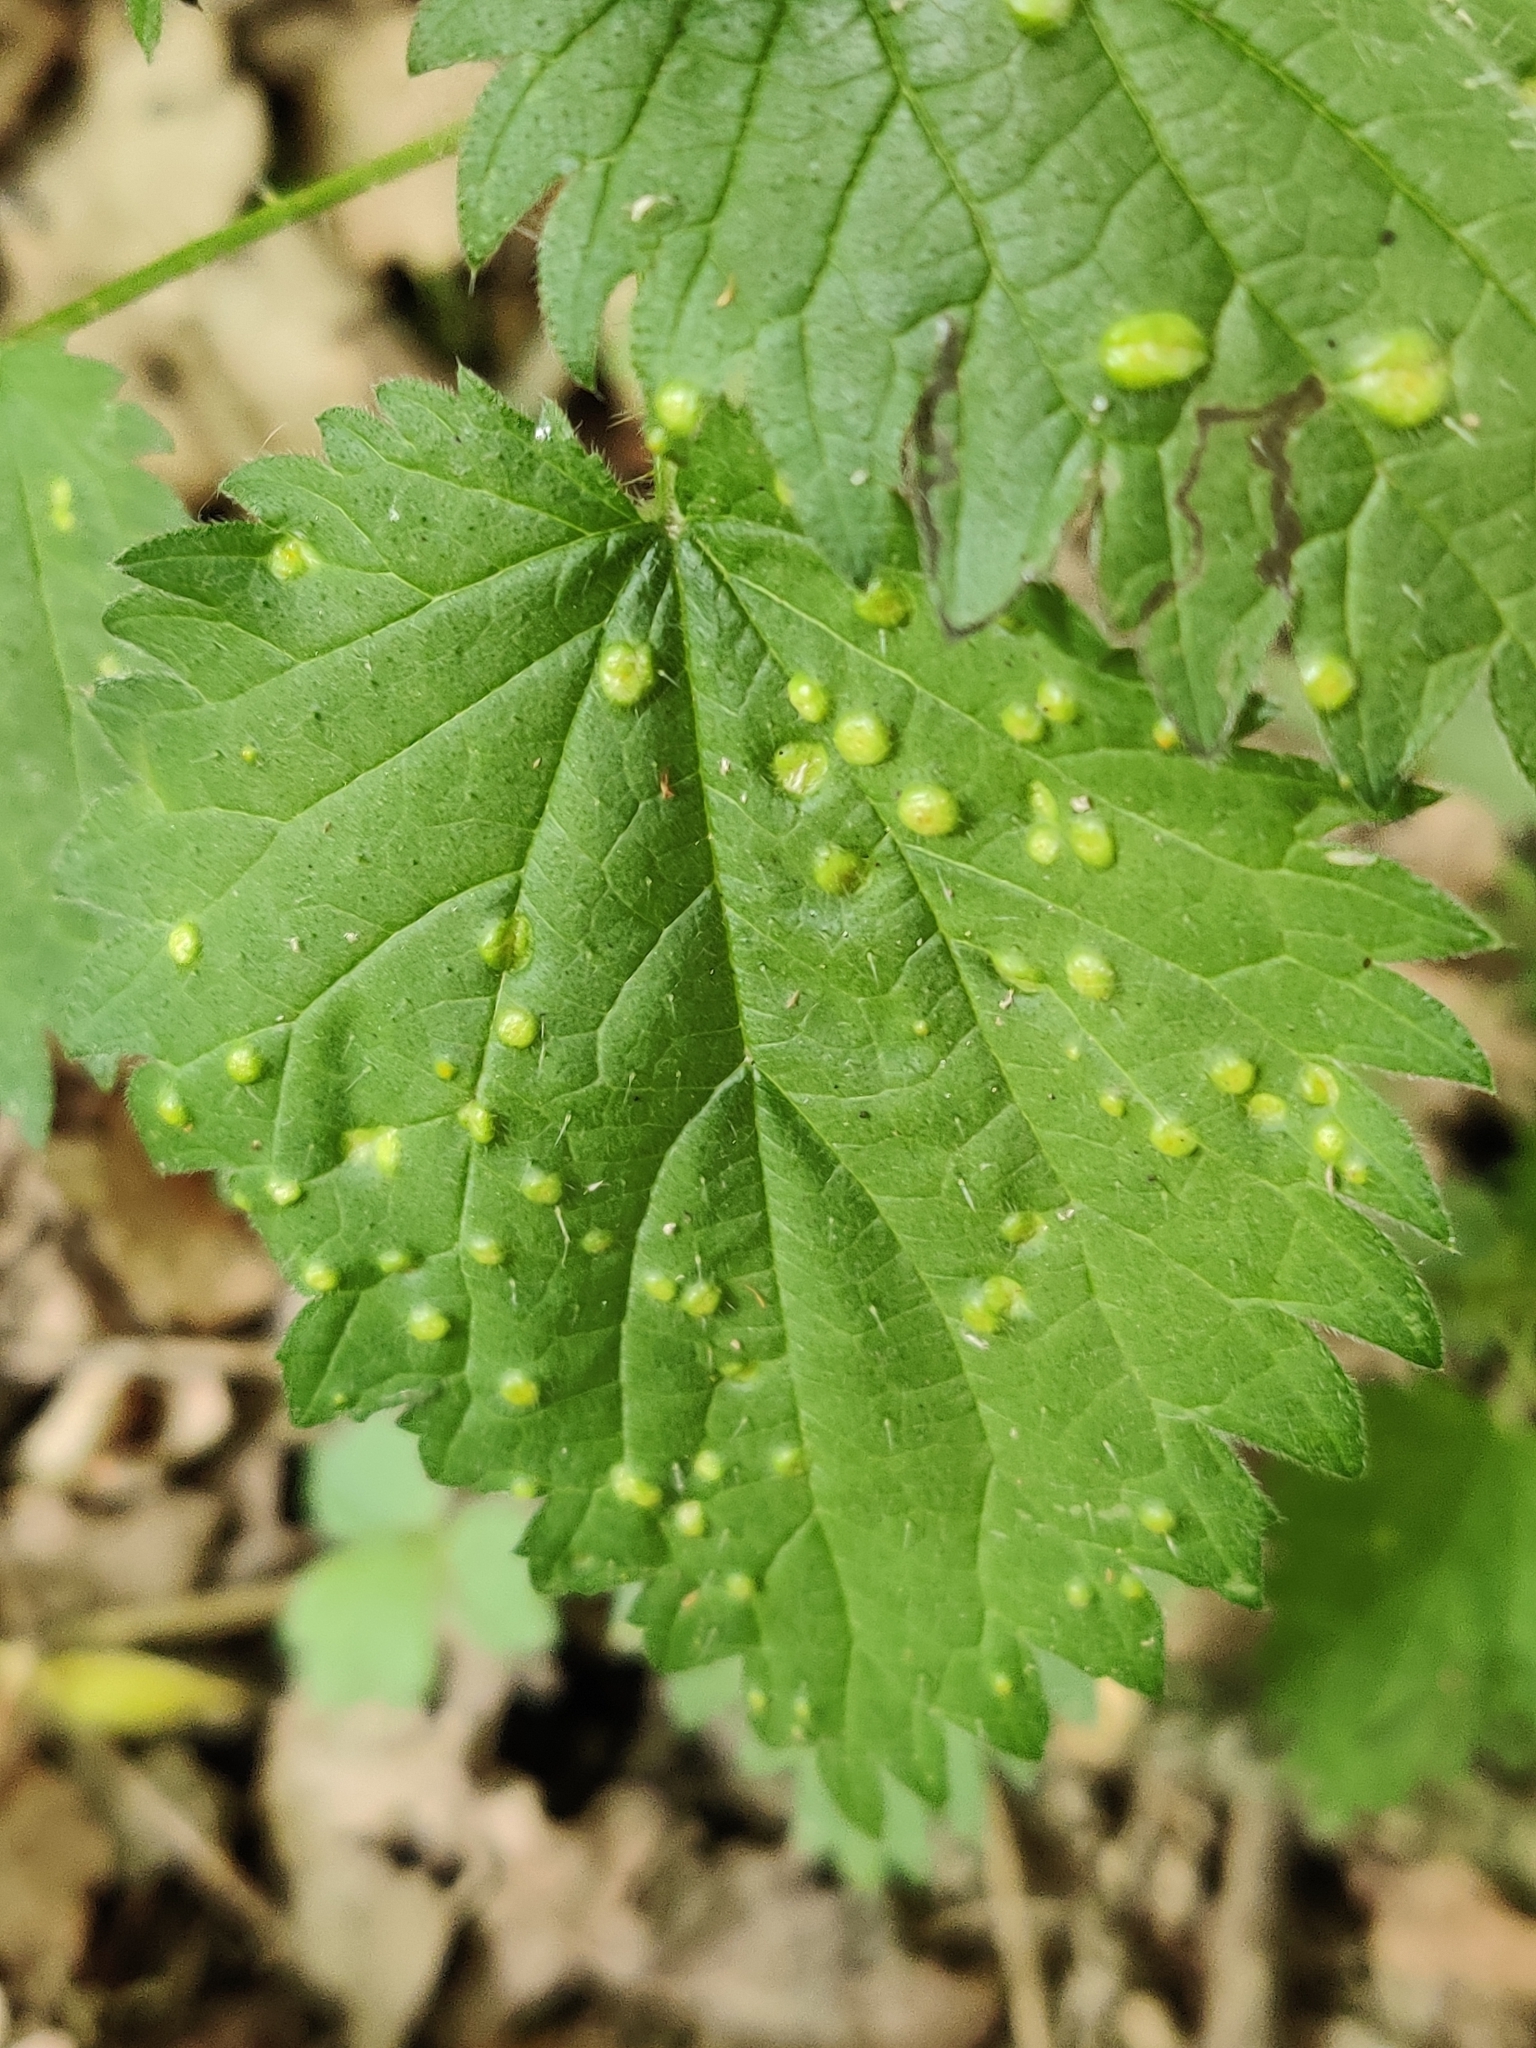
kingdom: Fungi
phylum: Basidiomycota
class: Pucciniomycetes
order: Pucciniales
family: Pucciniaceae
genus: Puccinia
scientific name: Puccinia urticata
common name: Nettle clustercup rust fungus
